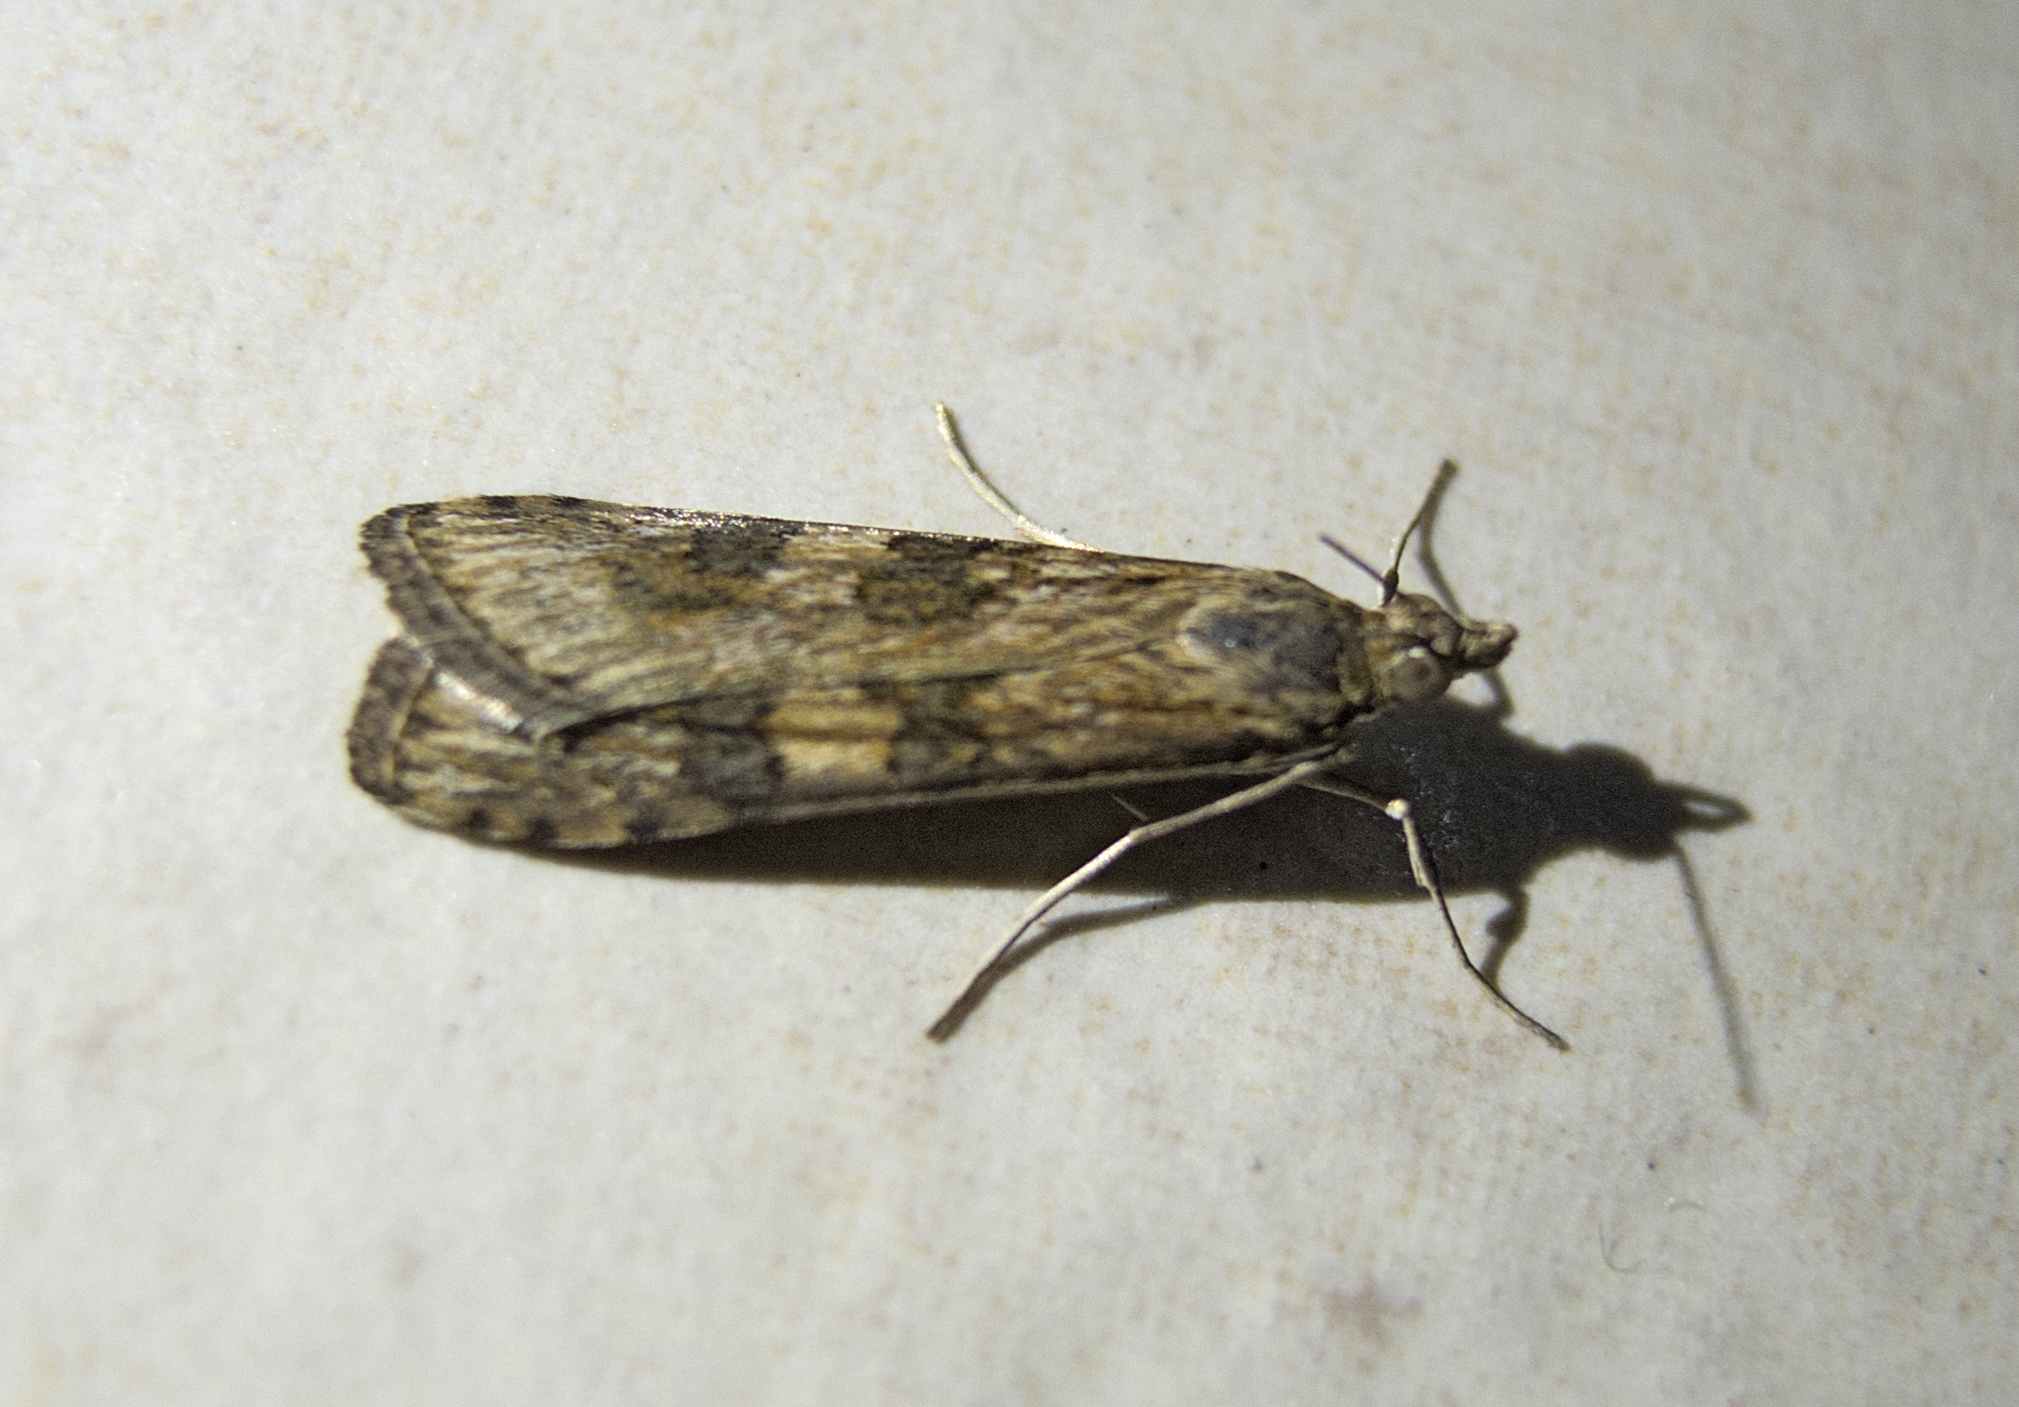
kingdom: Animalia
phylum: Arthropoda
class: Insecta
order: Lepidoptera
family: Crambidae
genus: Nomophila
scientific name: Nomophila noctuella
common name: Rush veneer
